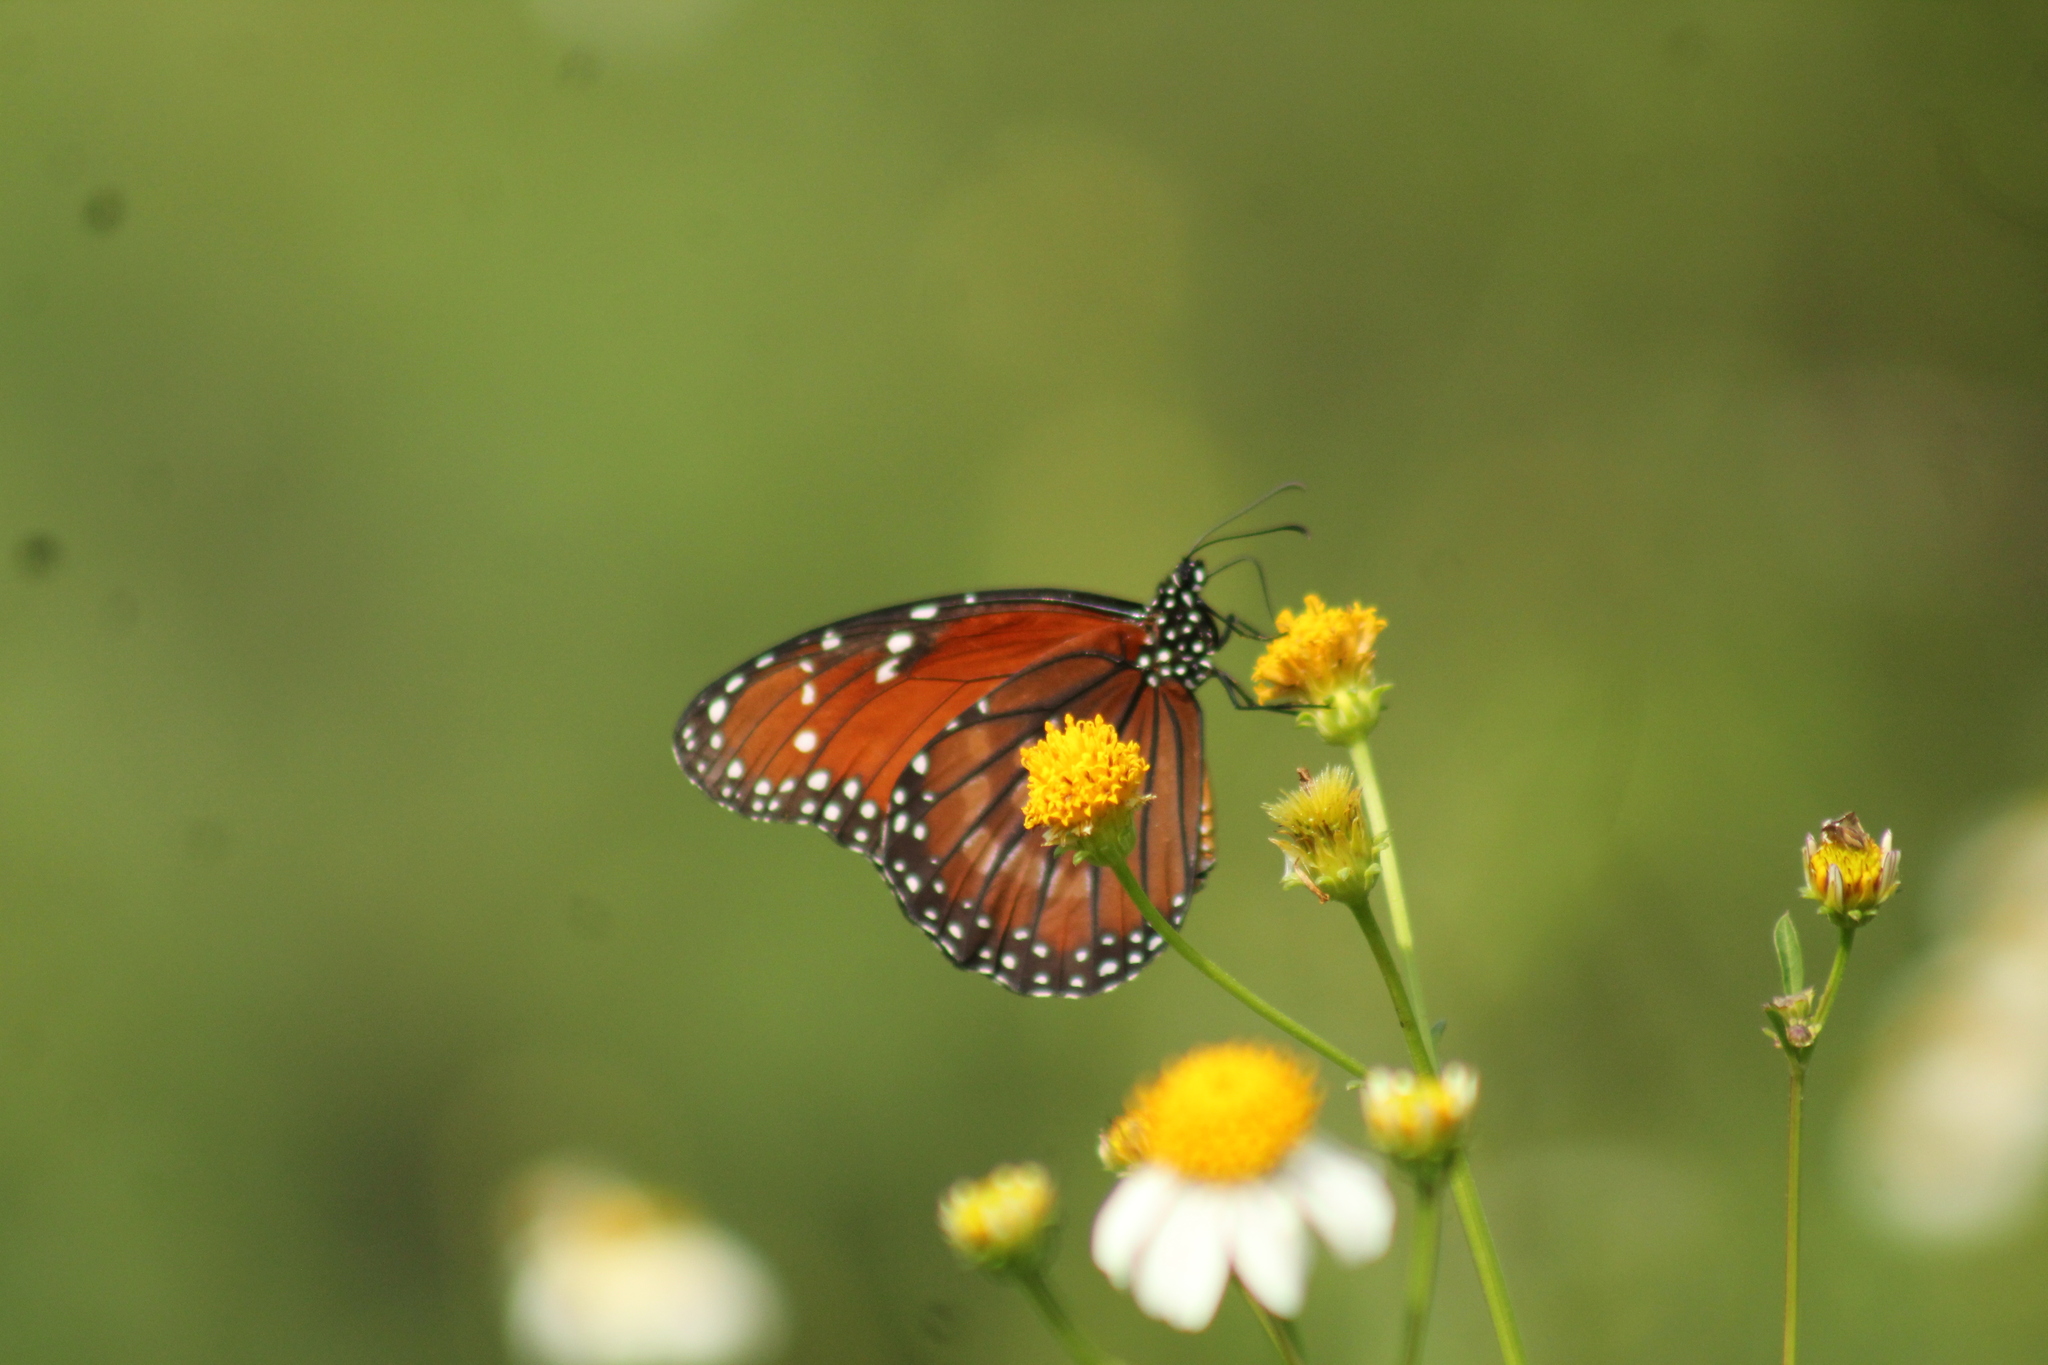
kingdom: Animalia
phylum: Arthropoda
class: Insecta
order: Lepidoptera
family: Nymphalidae
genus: Danaus
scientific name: Danaus eresimus
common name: Soldier
